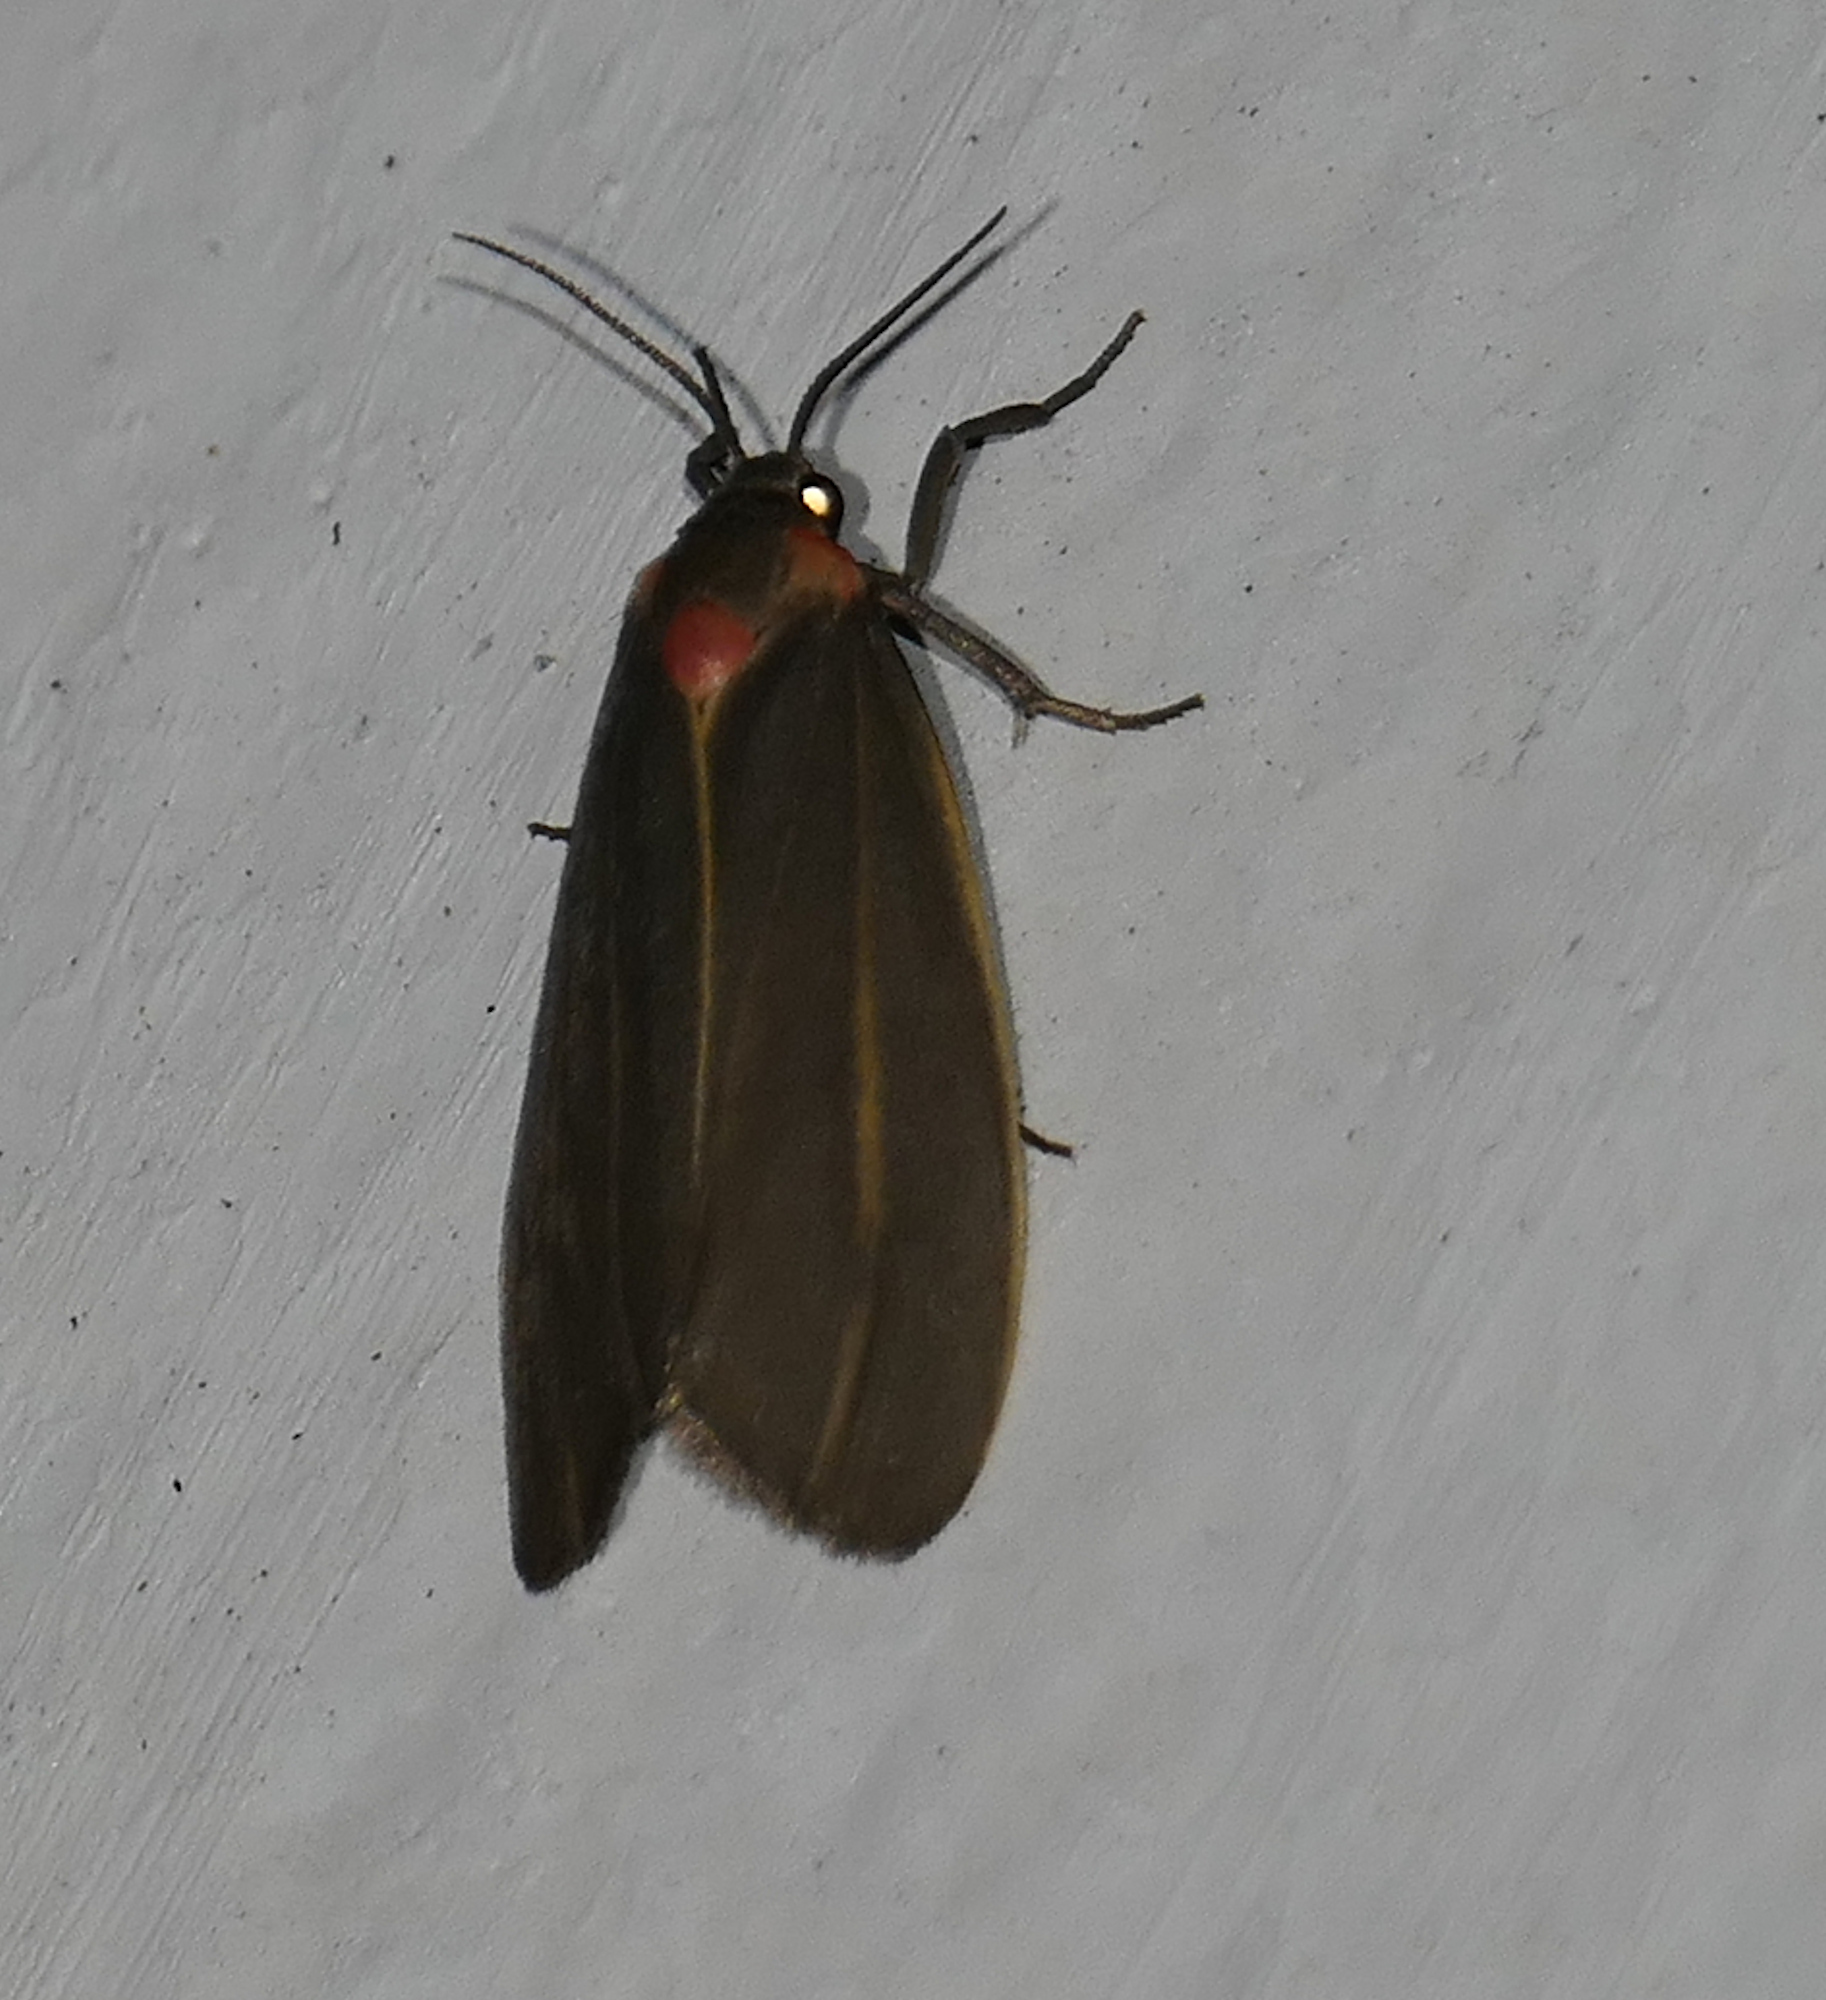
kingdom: Animalia
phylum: Arthropoda
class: Insecta
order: Lepidoptera
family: Erebidae
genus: Haematomis
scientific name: Haematomis uniformis
